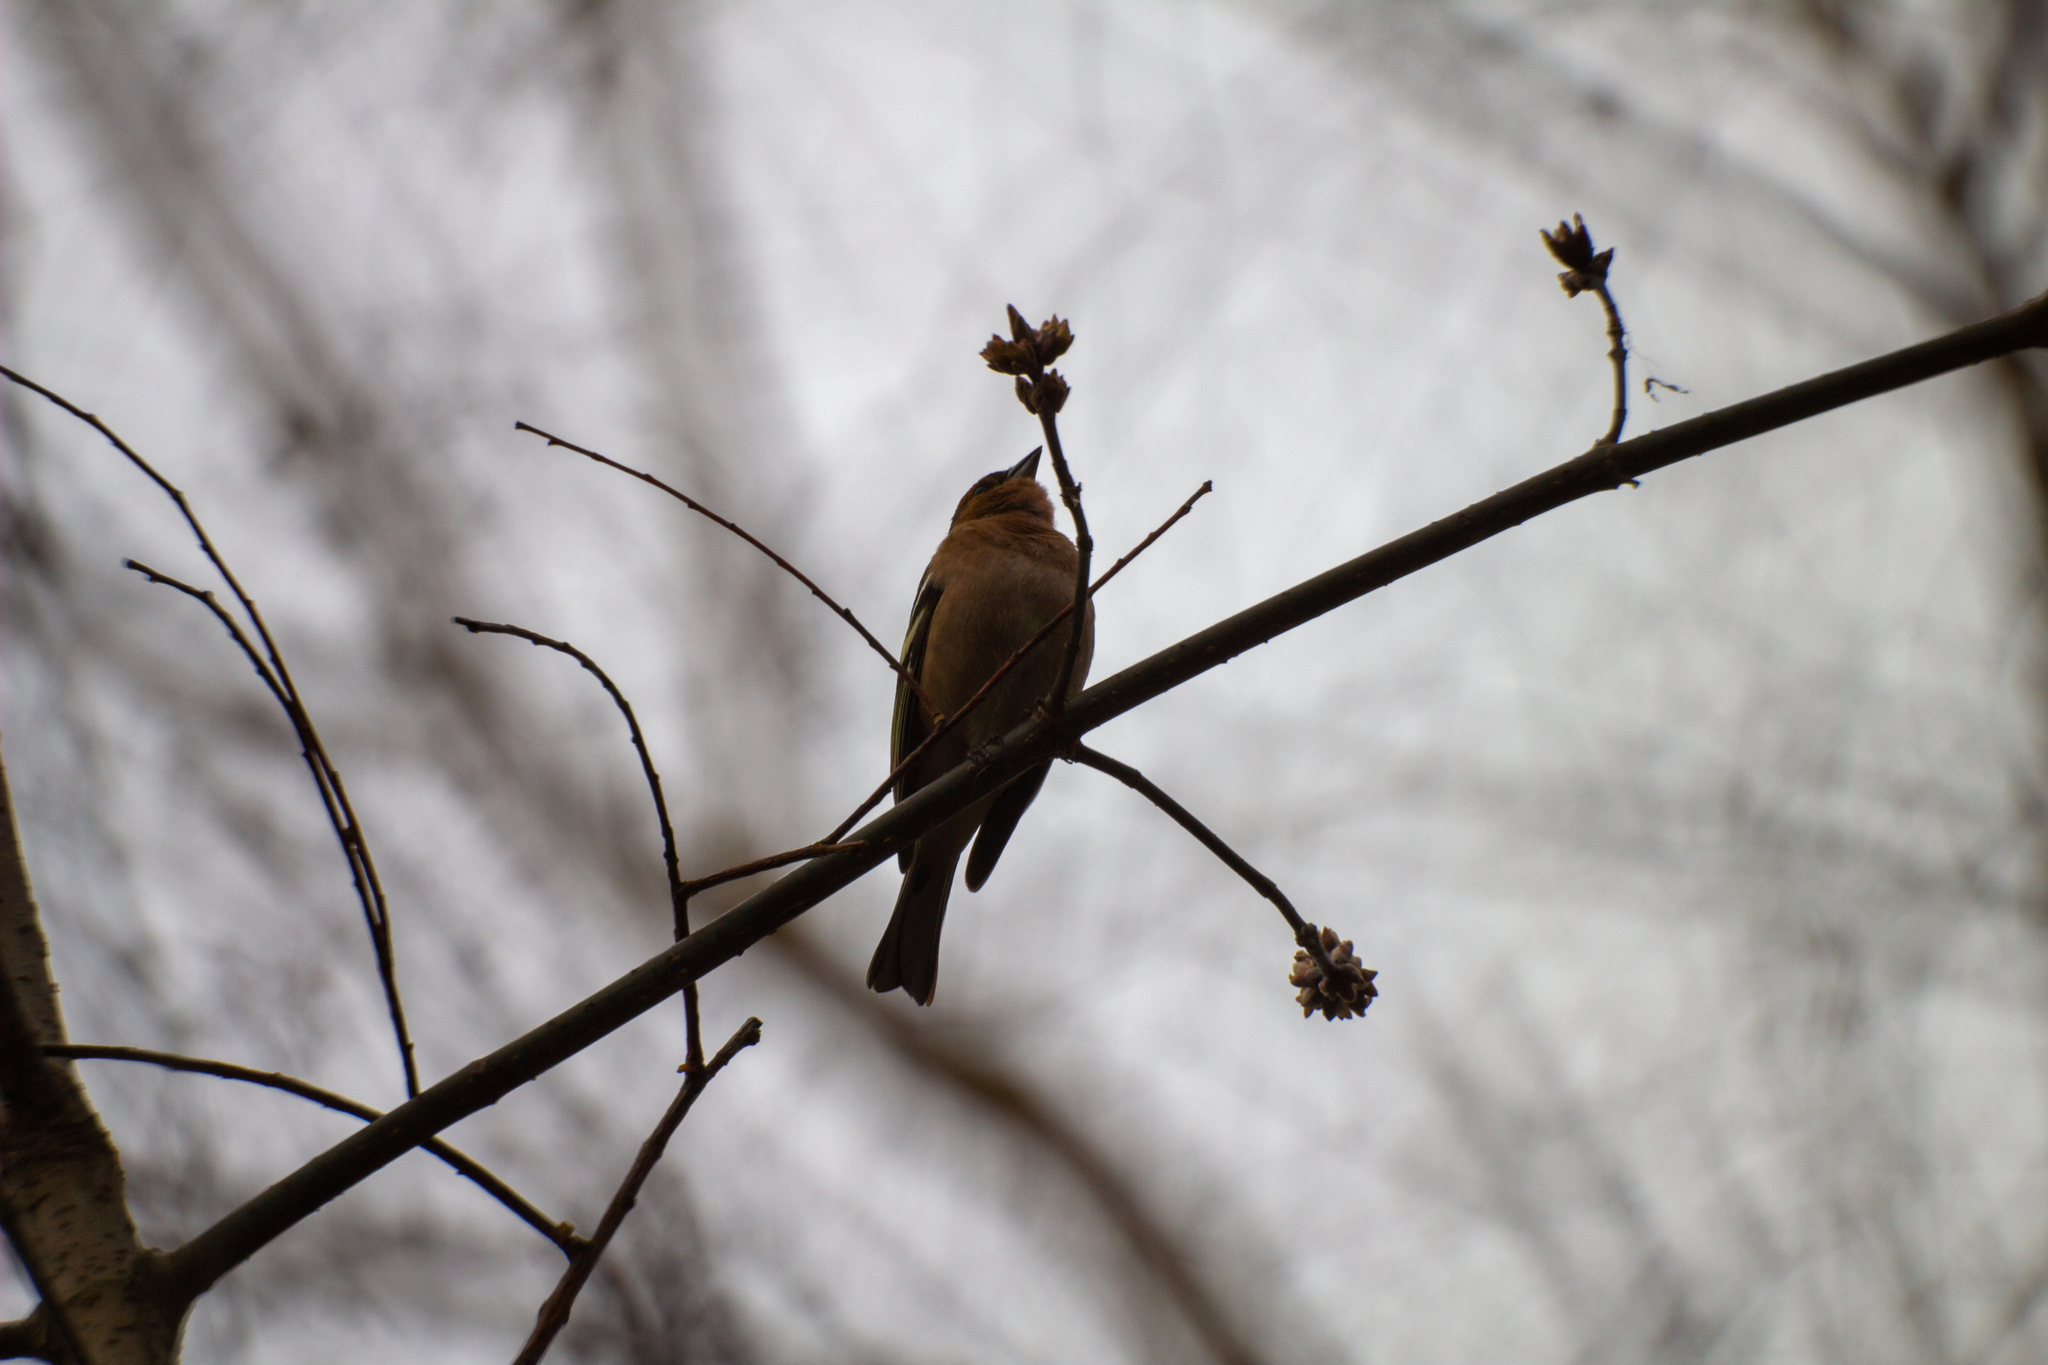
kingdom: Animalia
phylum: Chordata
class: Aves
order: Passeriformes
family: Fringillidae
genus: Fringilla
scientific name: Fringilla coelebs
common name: Common chaffinch
